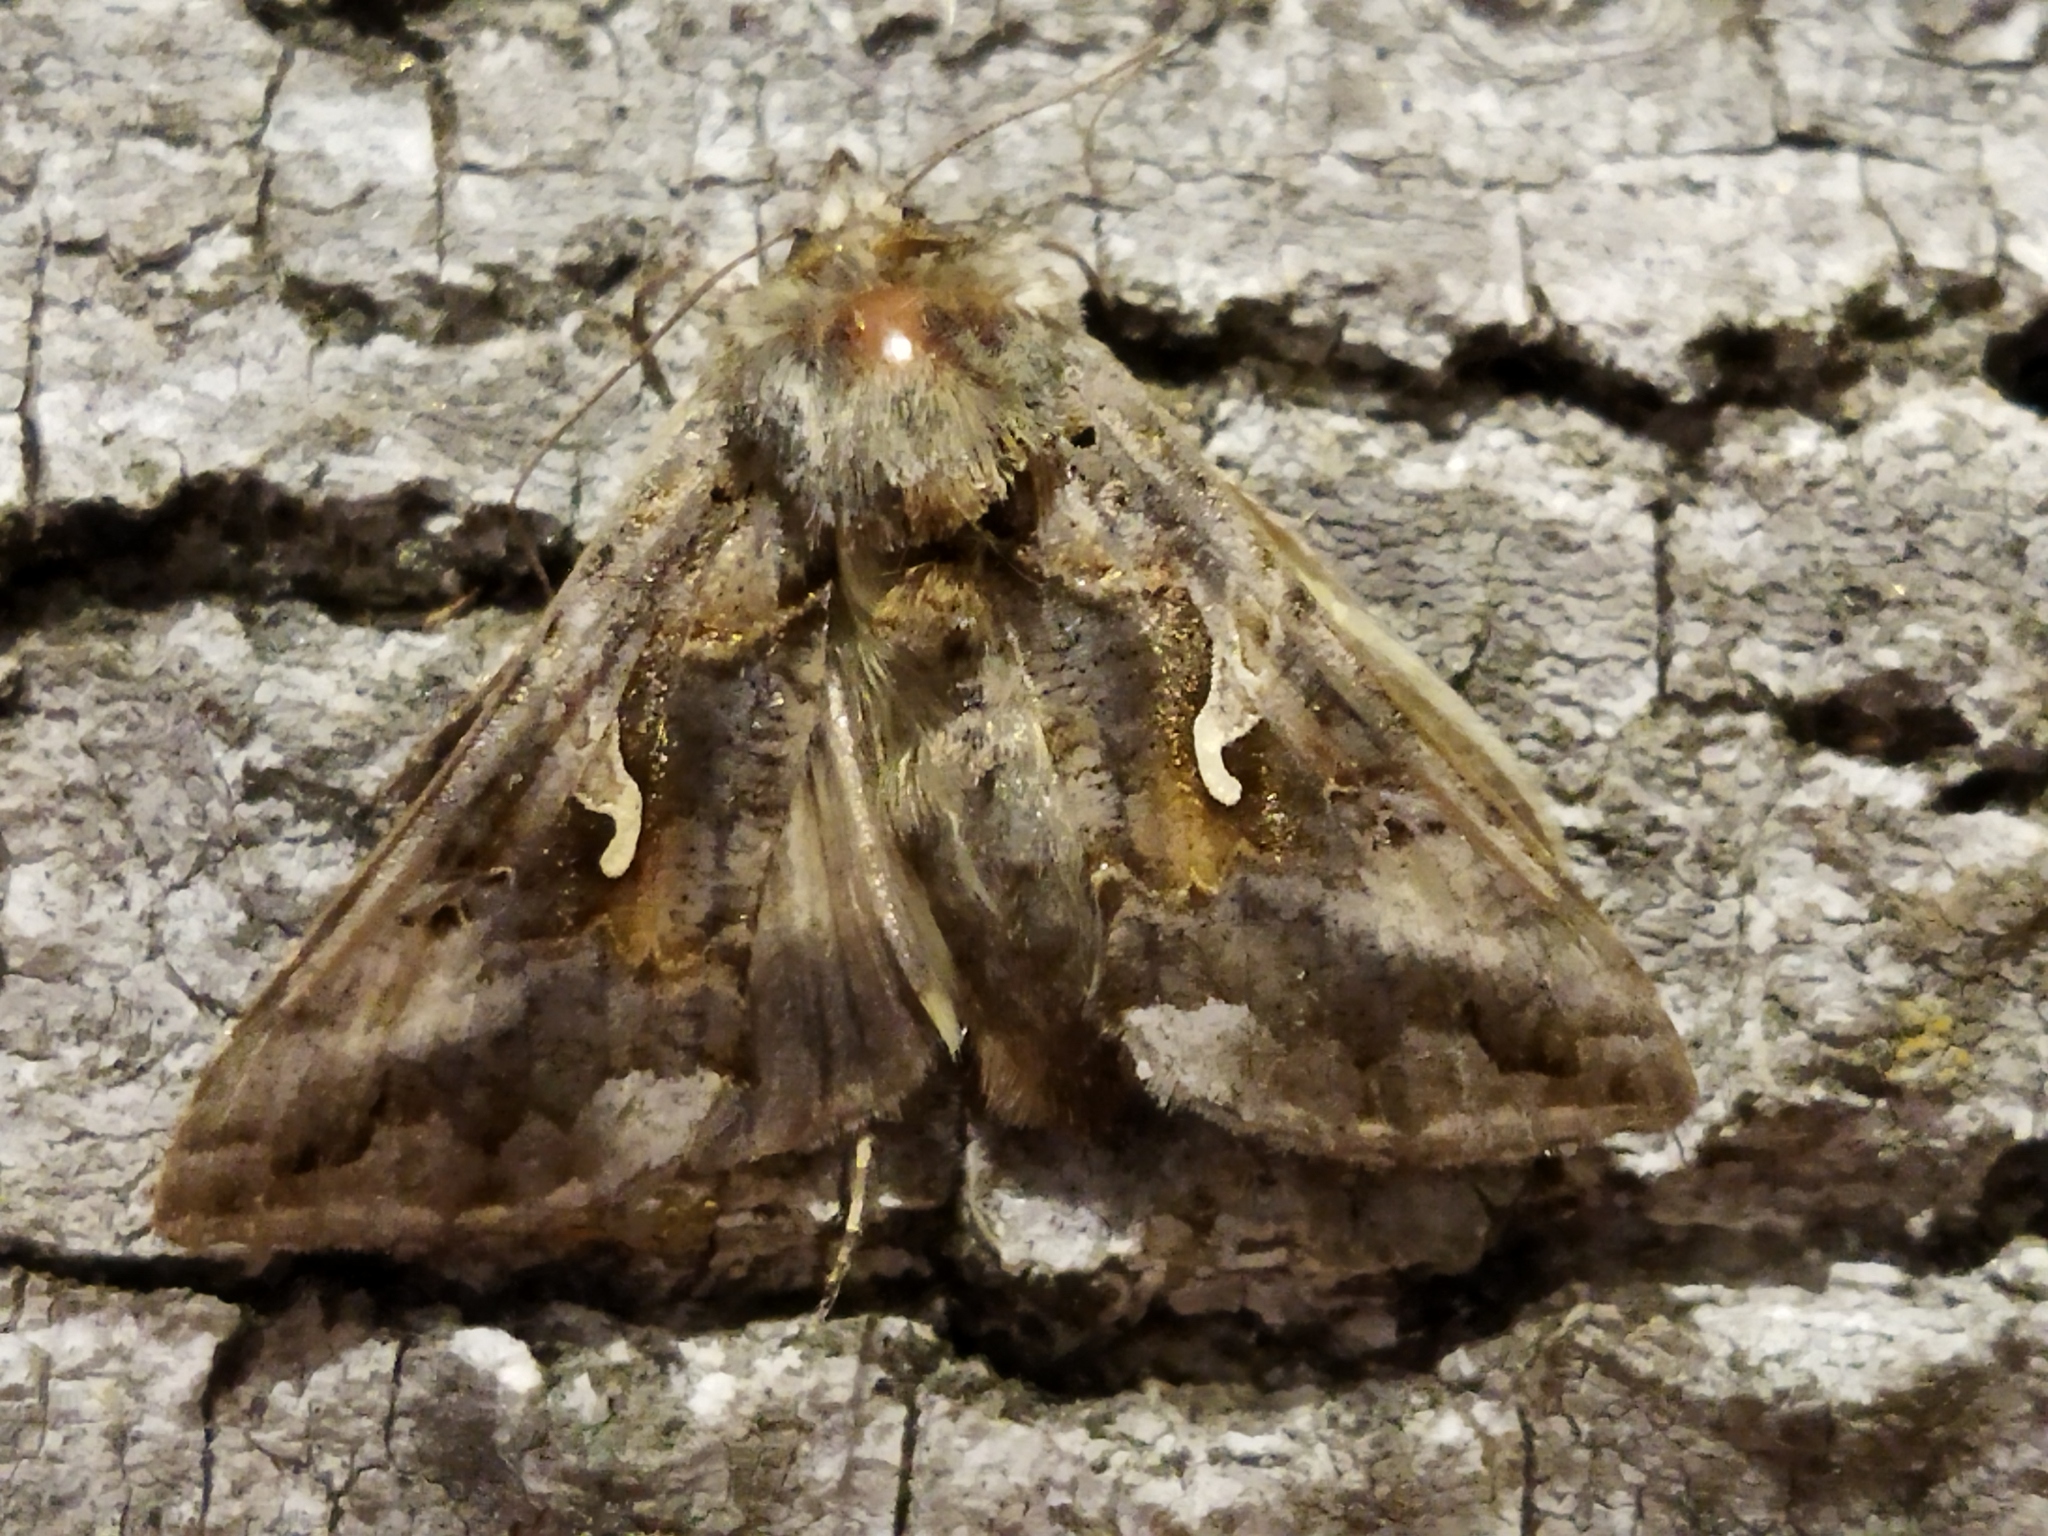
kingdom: Animalia
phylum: Arthropoda
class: Insecta
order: Lepidoptera
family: Noctuidae
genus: Autographa
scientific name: Autographa gamma
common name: Silver y
